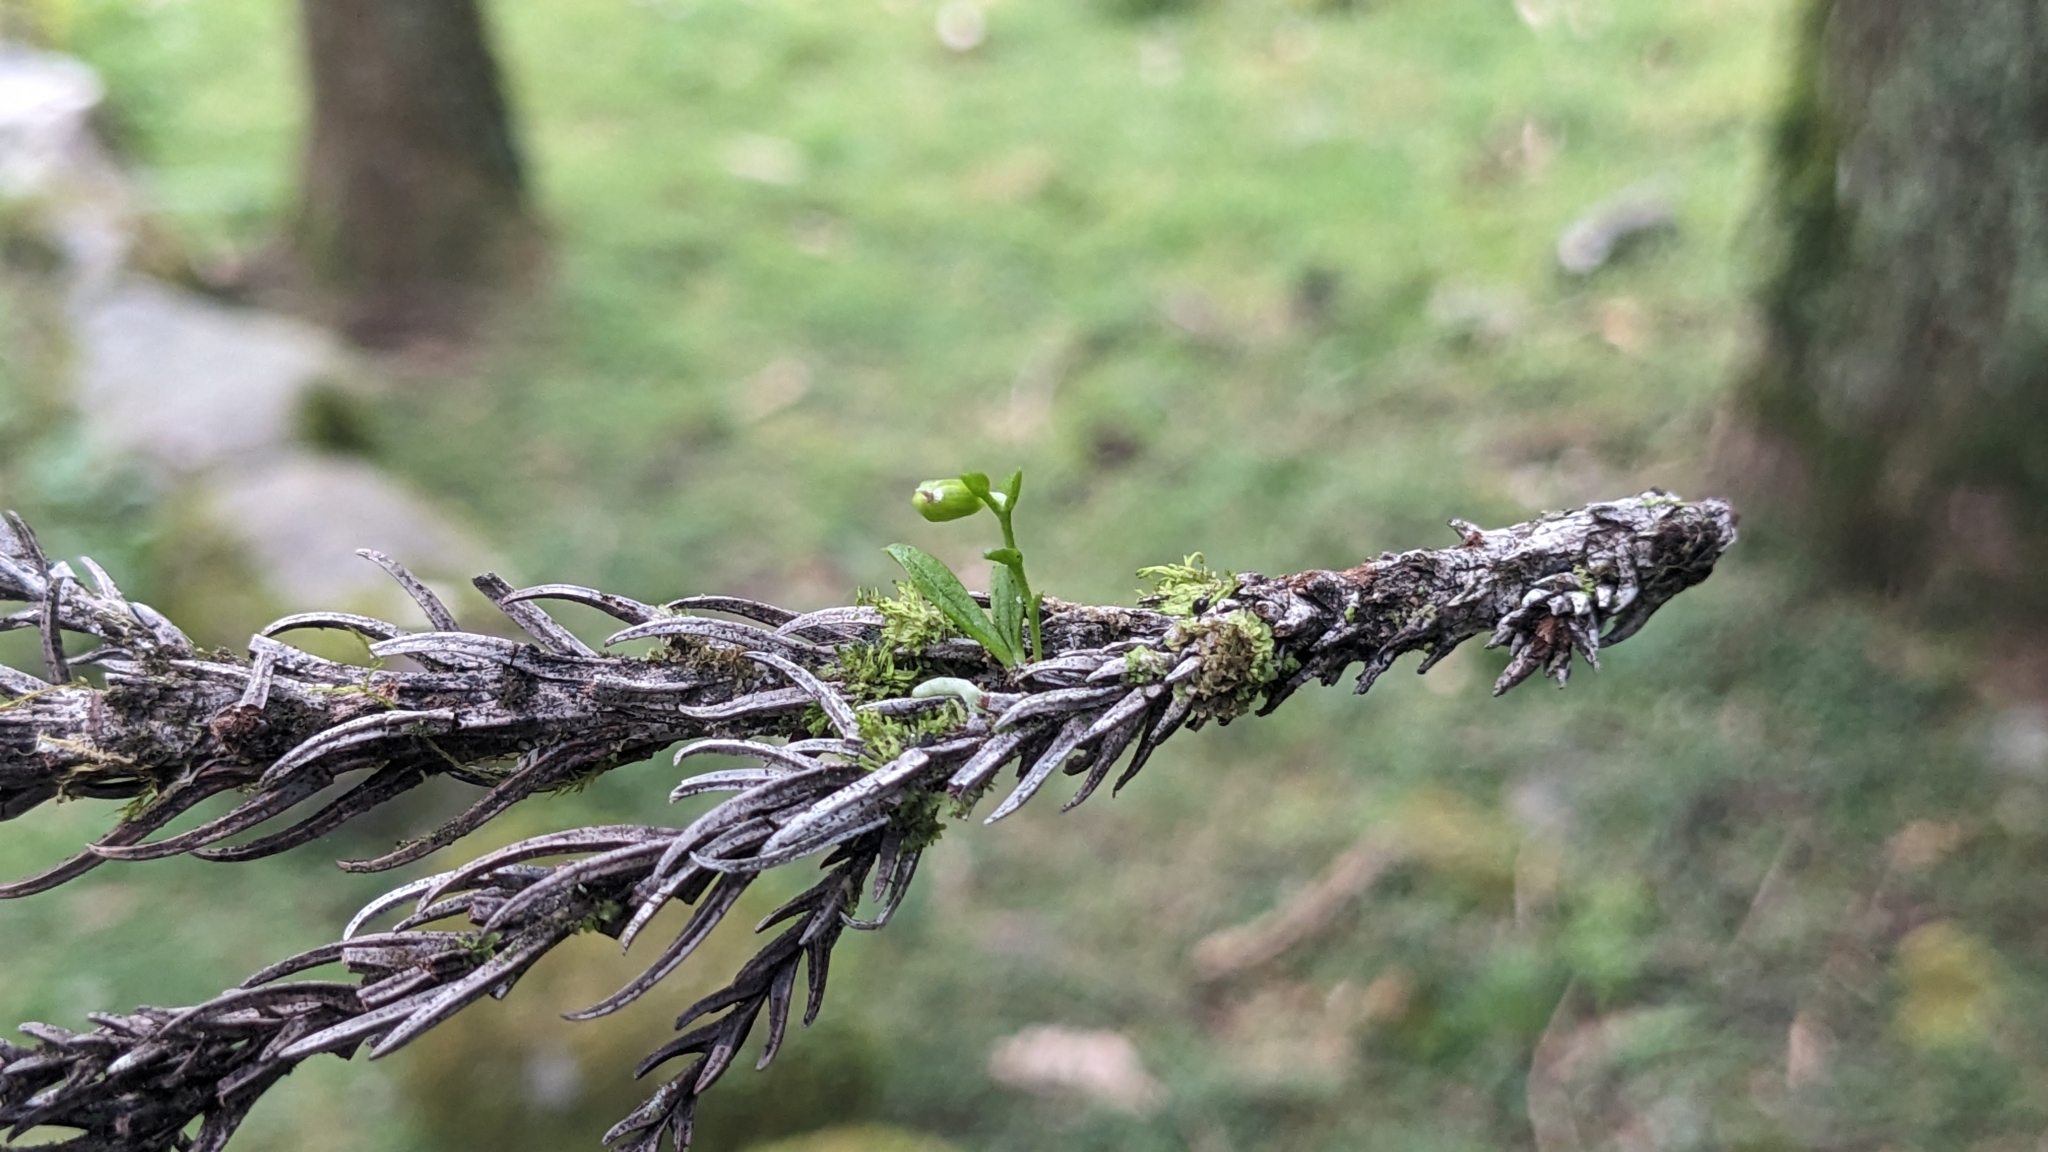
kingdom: Plantae
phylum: Tracheophyta
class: Liliopsida
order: Asparagales
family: Orchidaceae
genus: Taeniophyllum
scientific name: Taeniophyllum compactum
